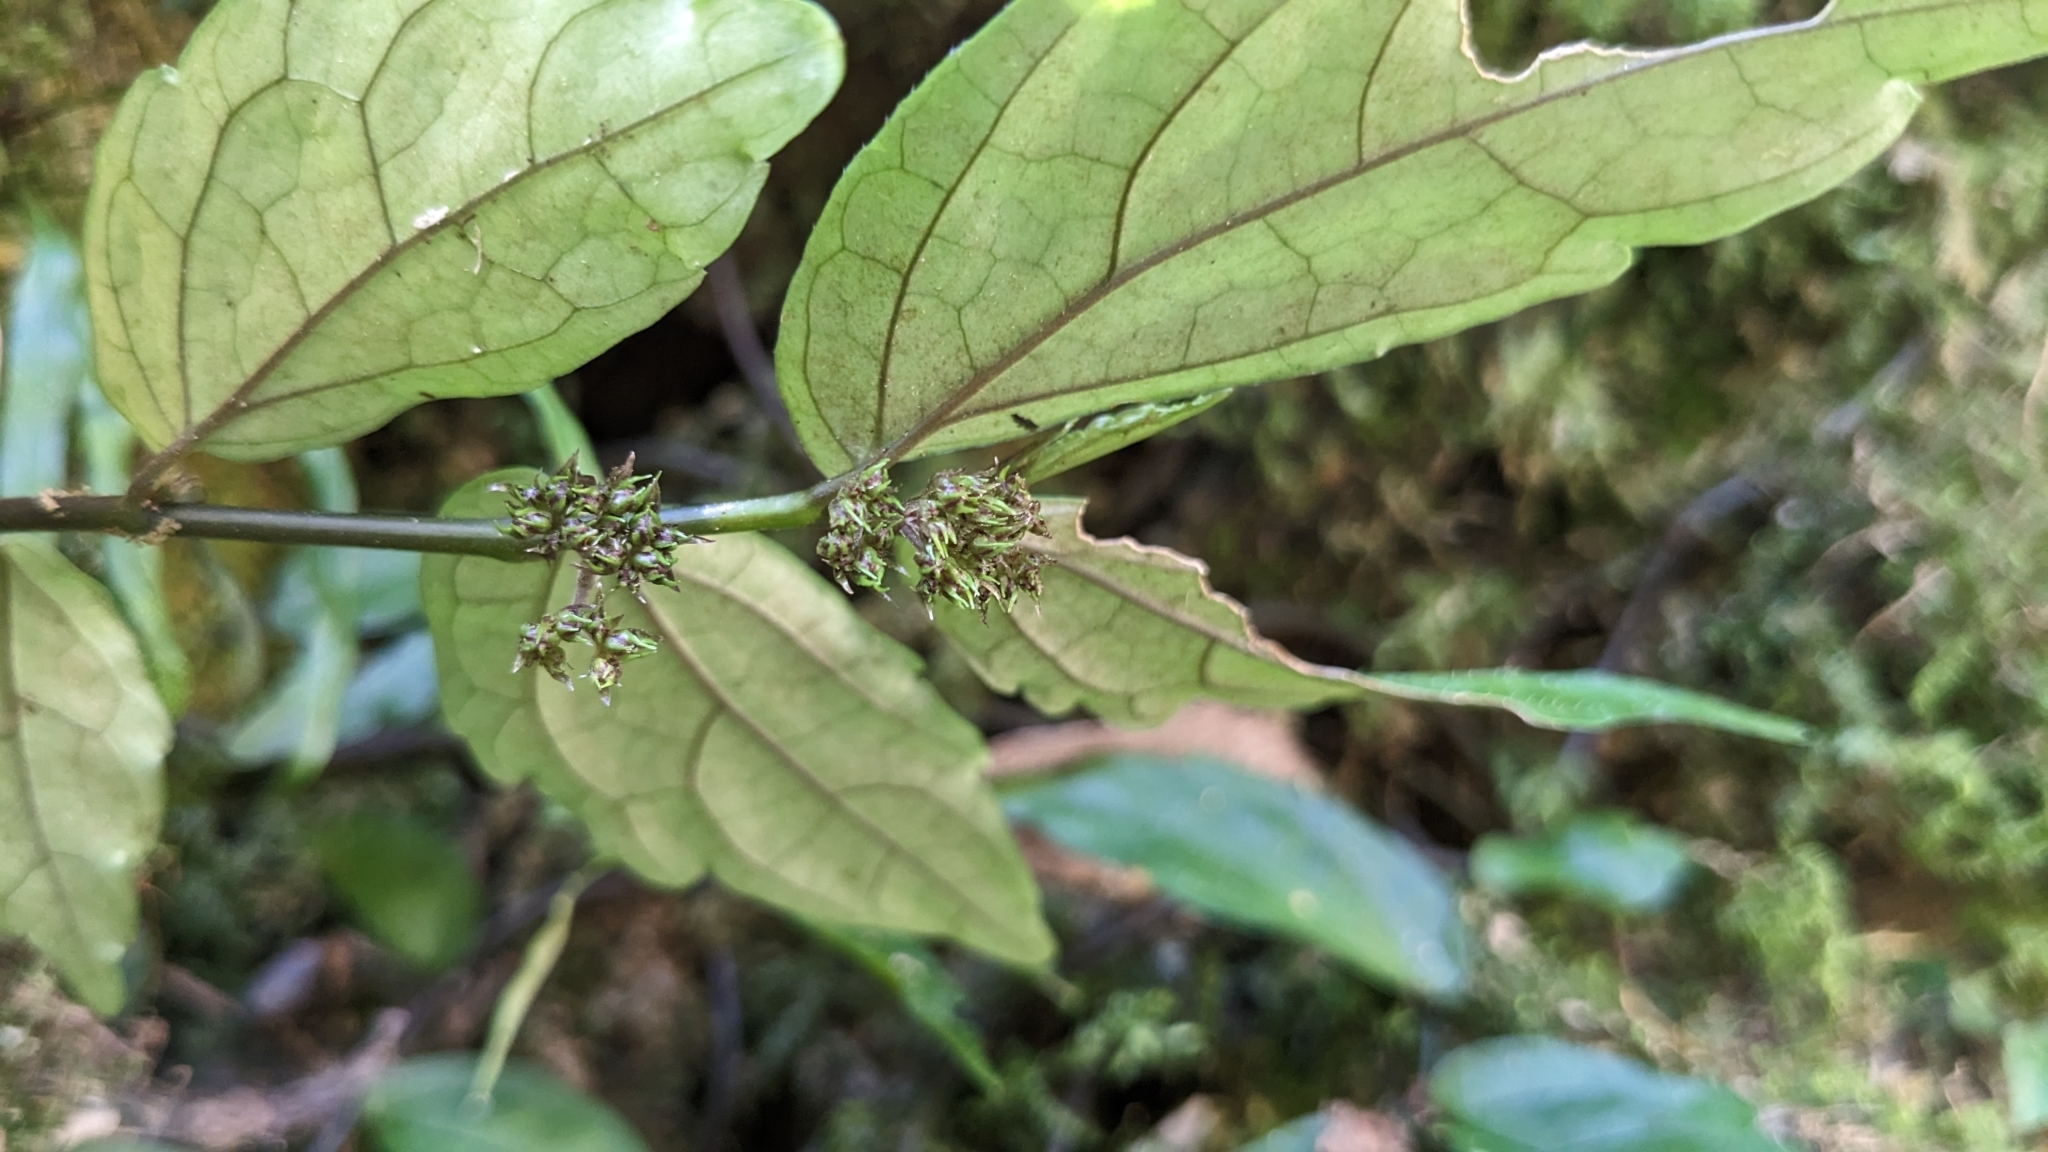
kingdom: Plantae
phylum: Tracheophyta
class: Magnoliopsida
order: Rosales
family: Urticaceae
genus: Elatostema
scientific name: Elatostema radicans
